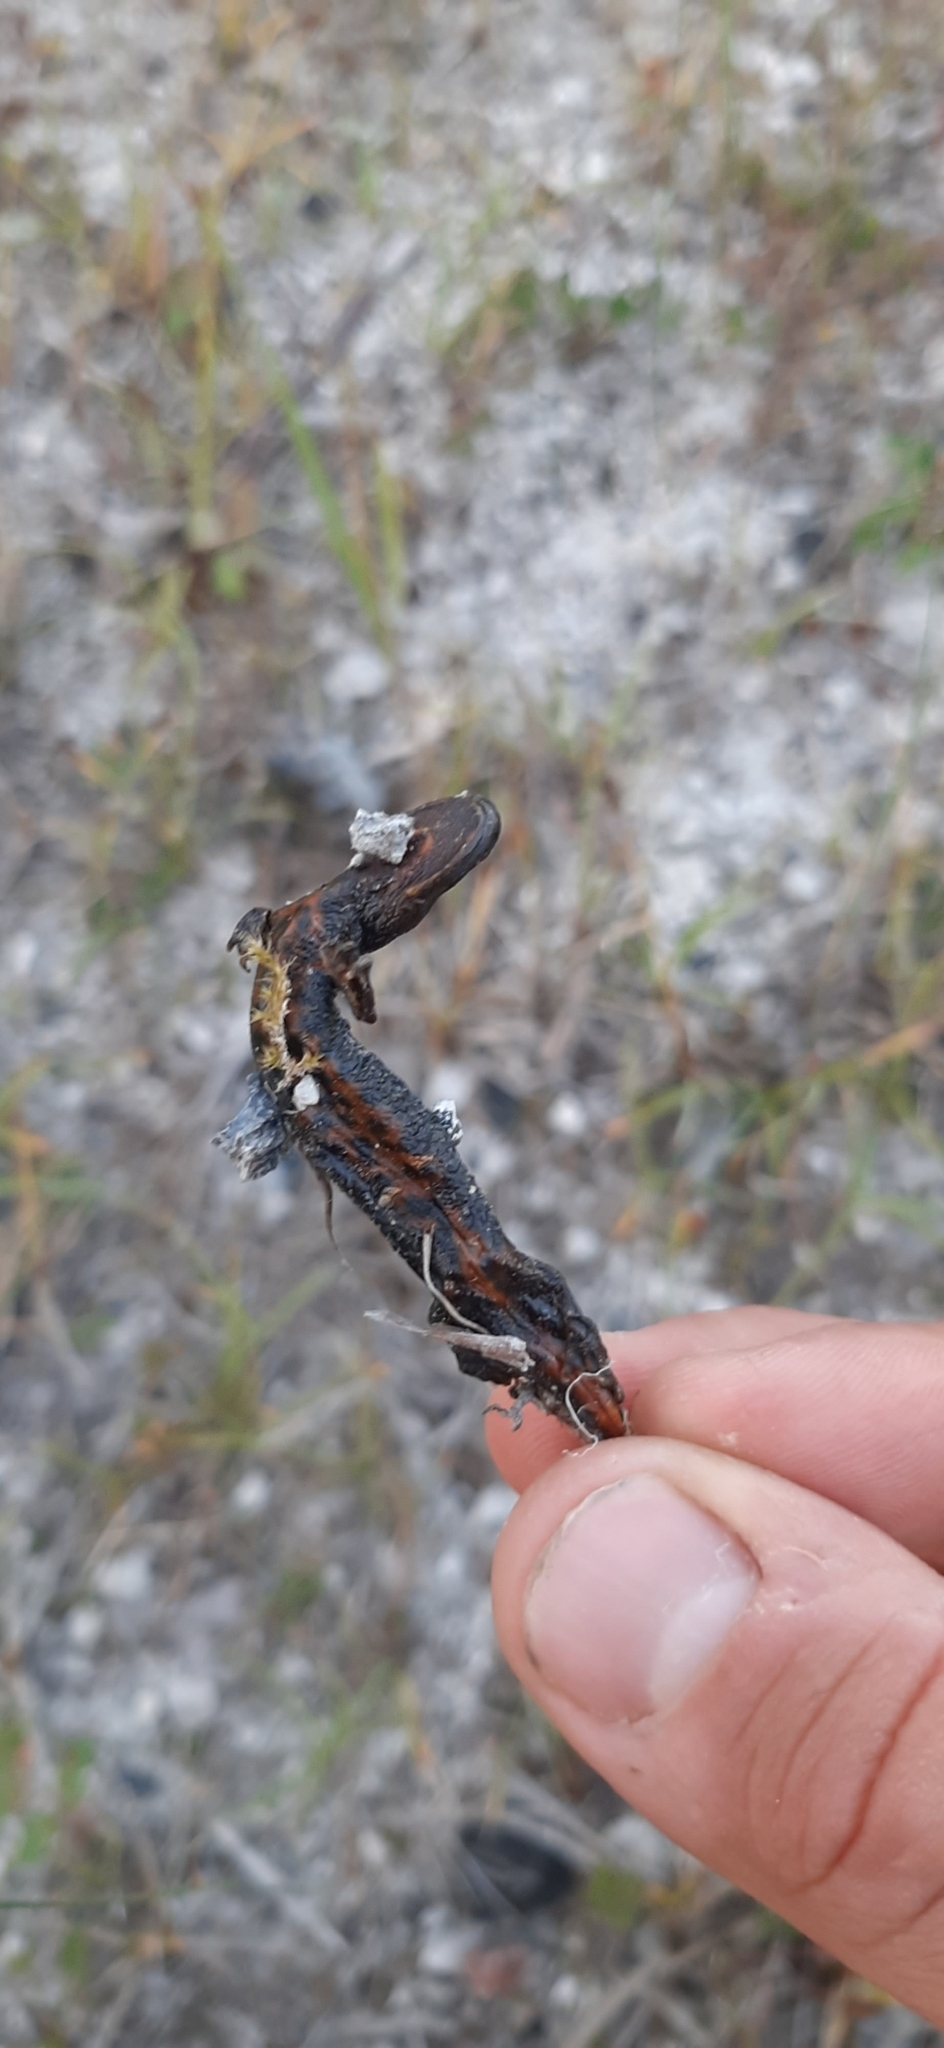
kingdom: Animalia
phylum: Chordata
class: Amphibia
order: Caudata
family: Salamandridae
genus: Triturus
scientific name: Triturus cristatus
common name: Crested newt
